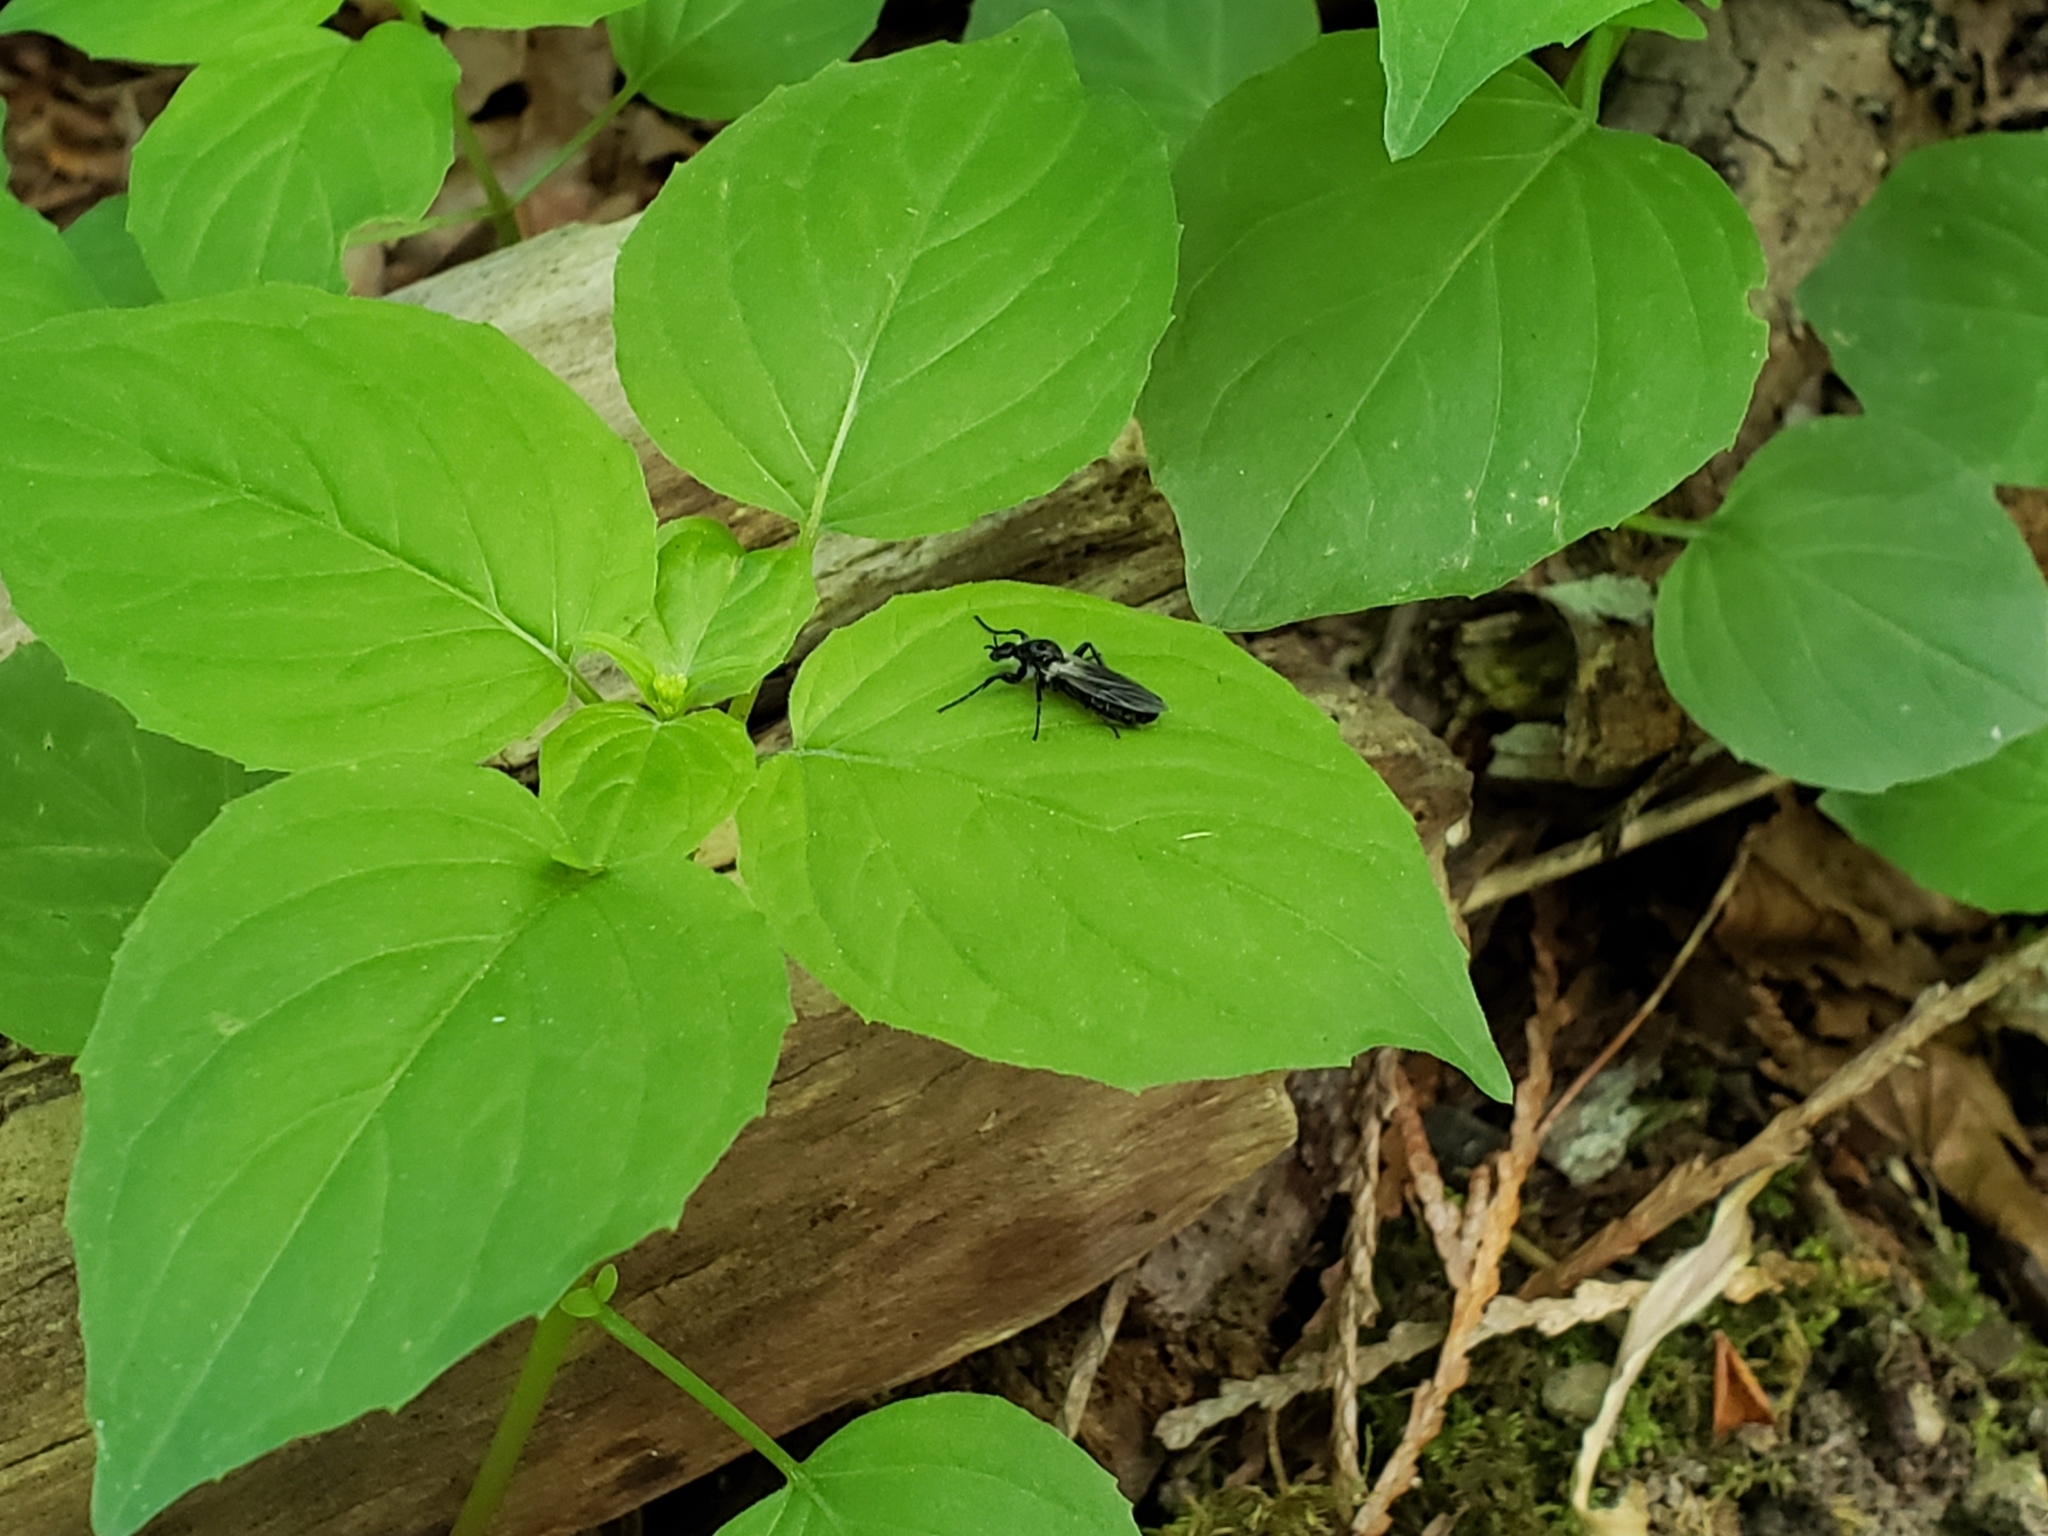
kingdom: Animalia
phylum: Arthropoda
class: Insecta
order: Diptera
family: Bibionidae
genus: Bibio
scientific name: Bibio albipennis
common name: White-winged march fly
